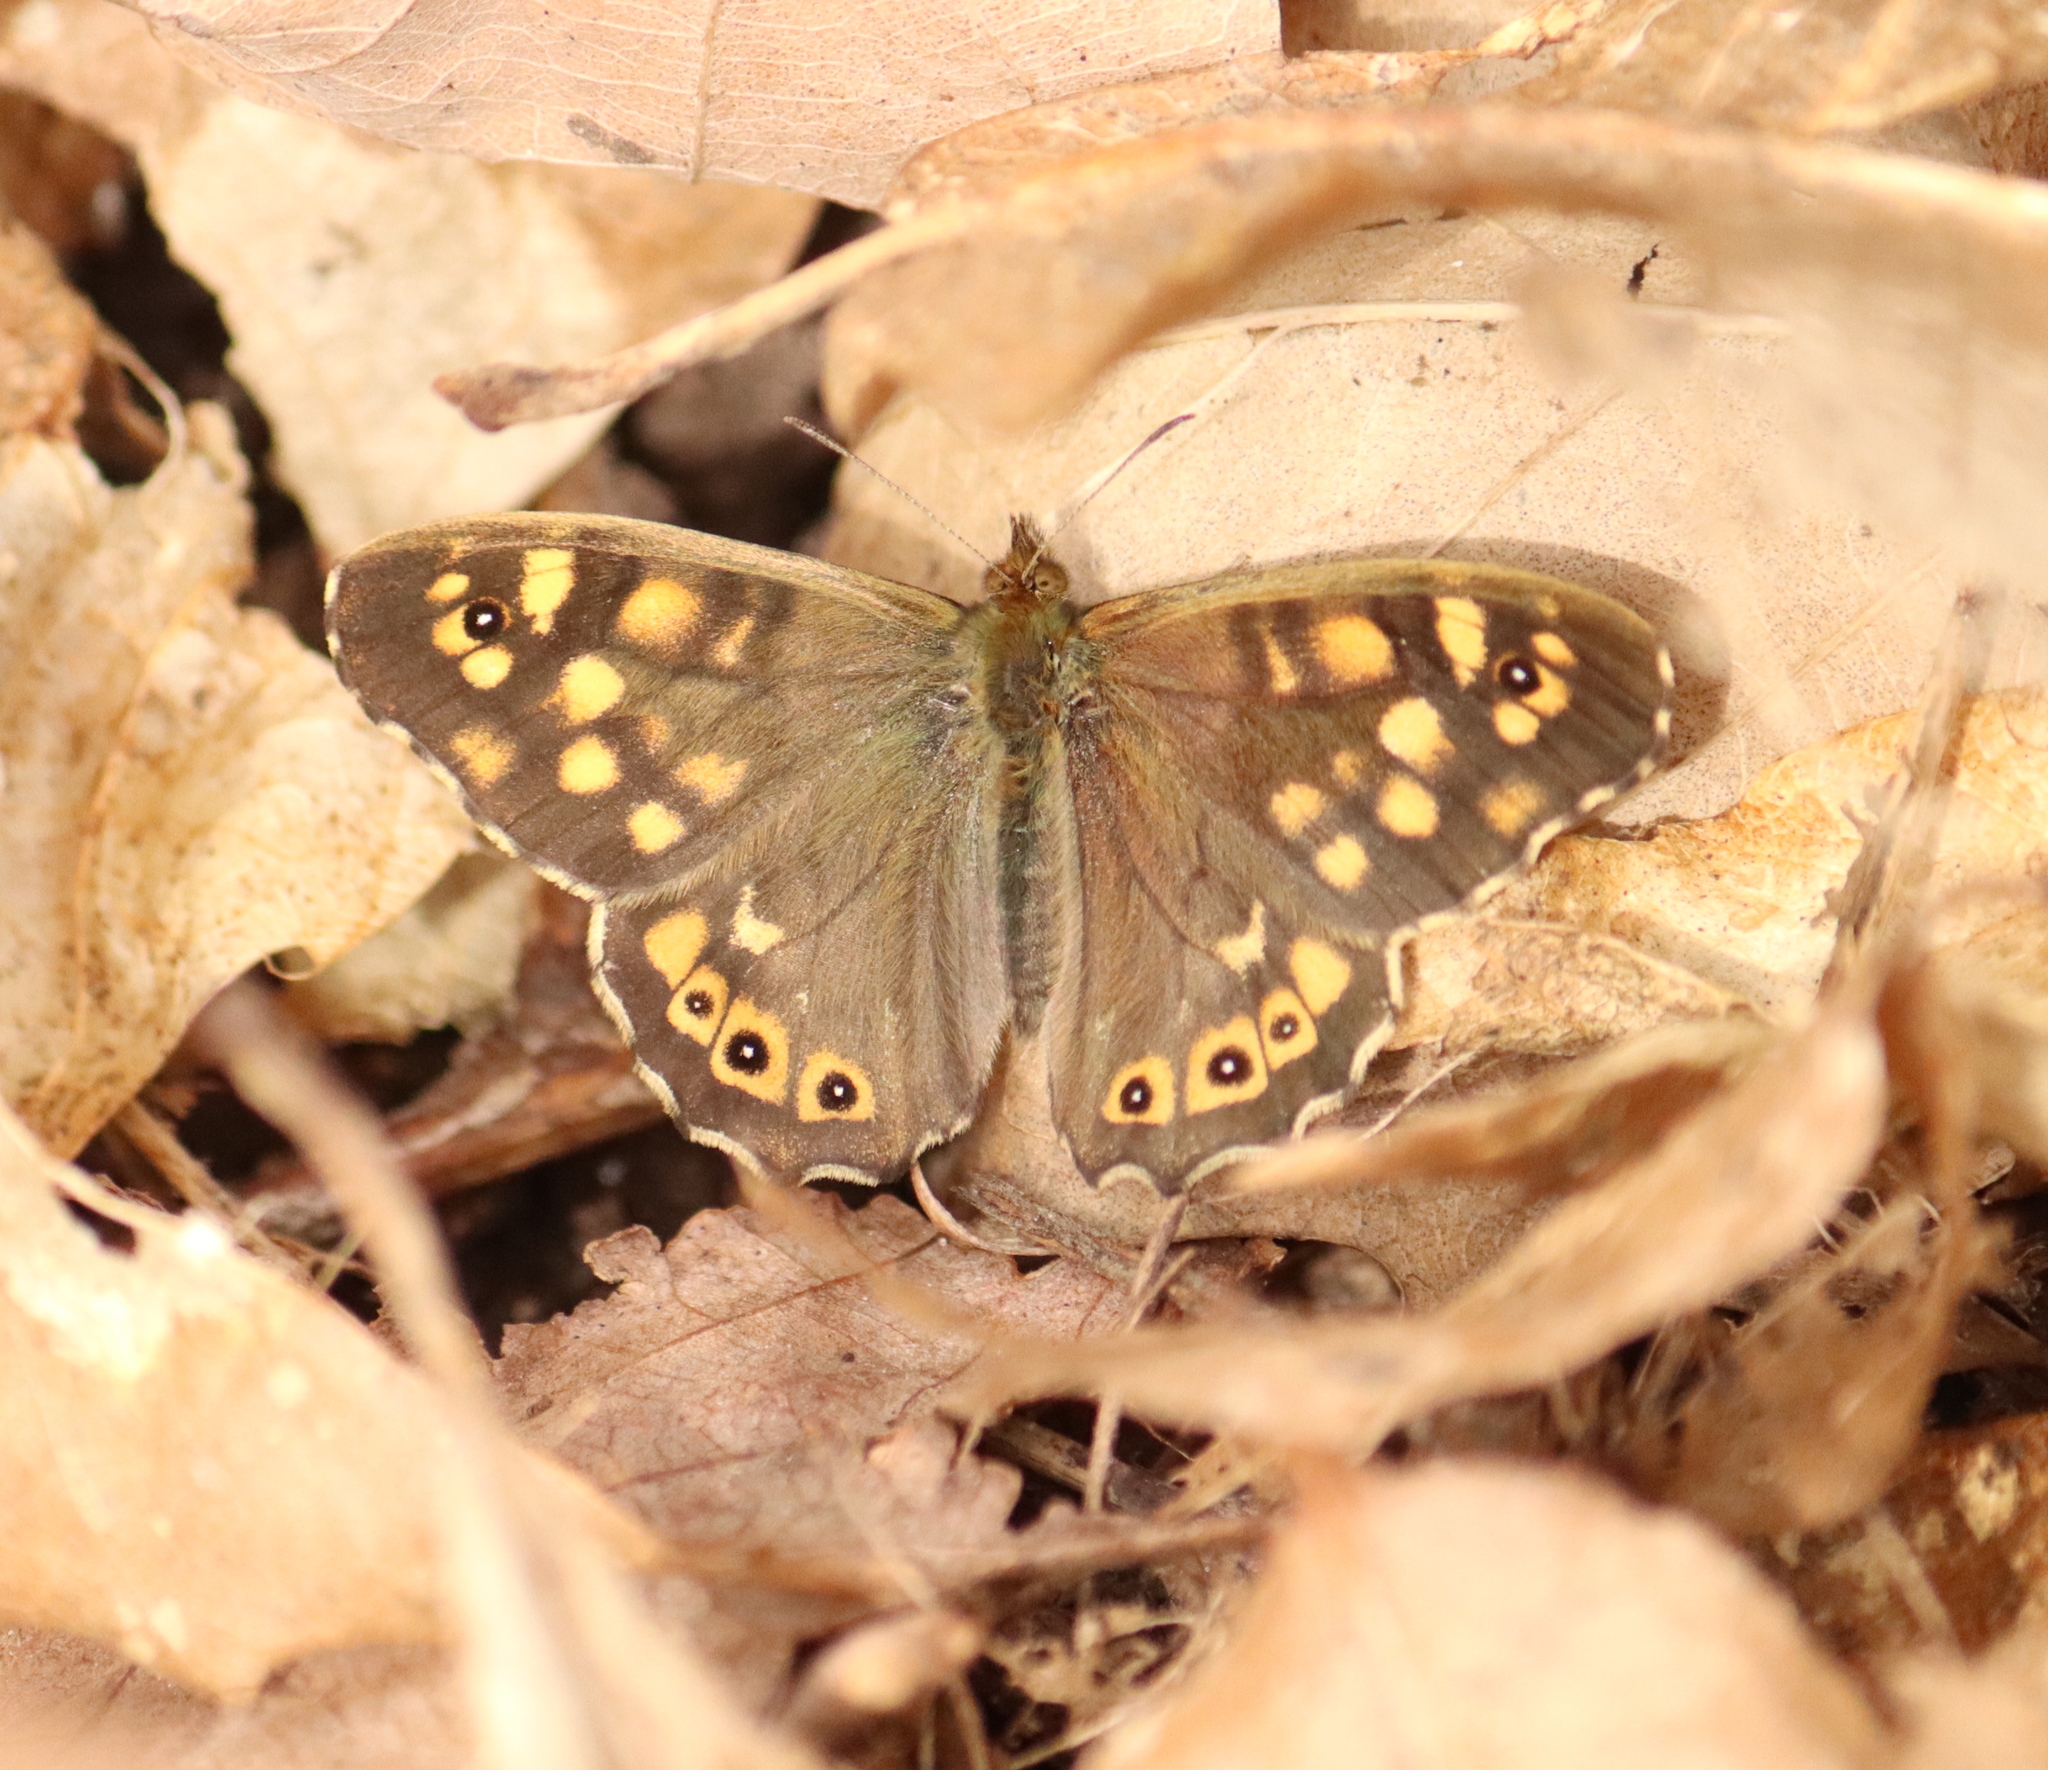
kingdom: Animalia
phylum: Arthropoda
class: Insecta
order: Lepidoptera
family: Nymphalidae
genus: Pararge
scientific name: Pararge aegeria
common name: Speckled wood
